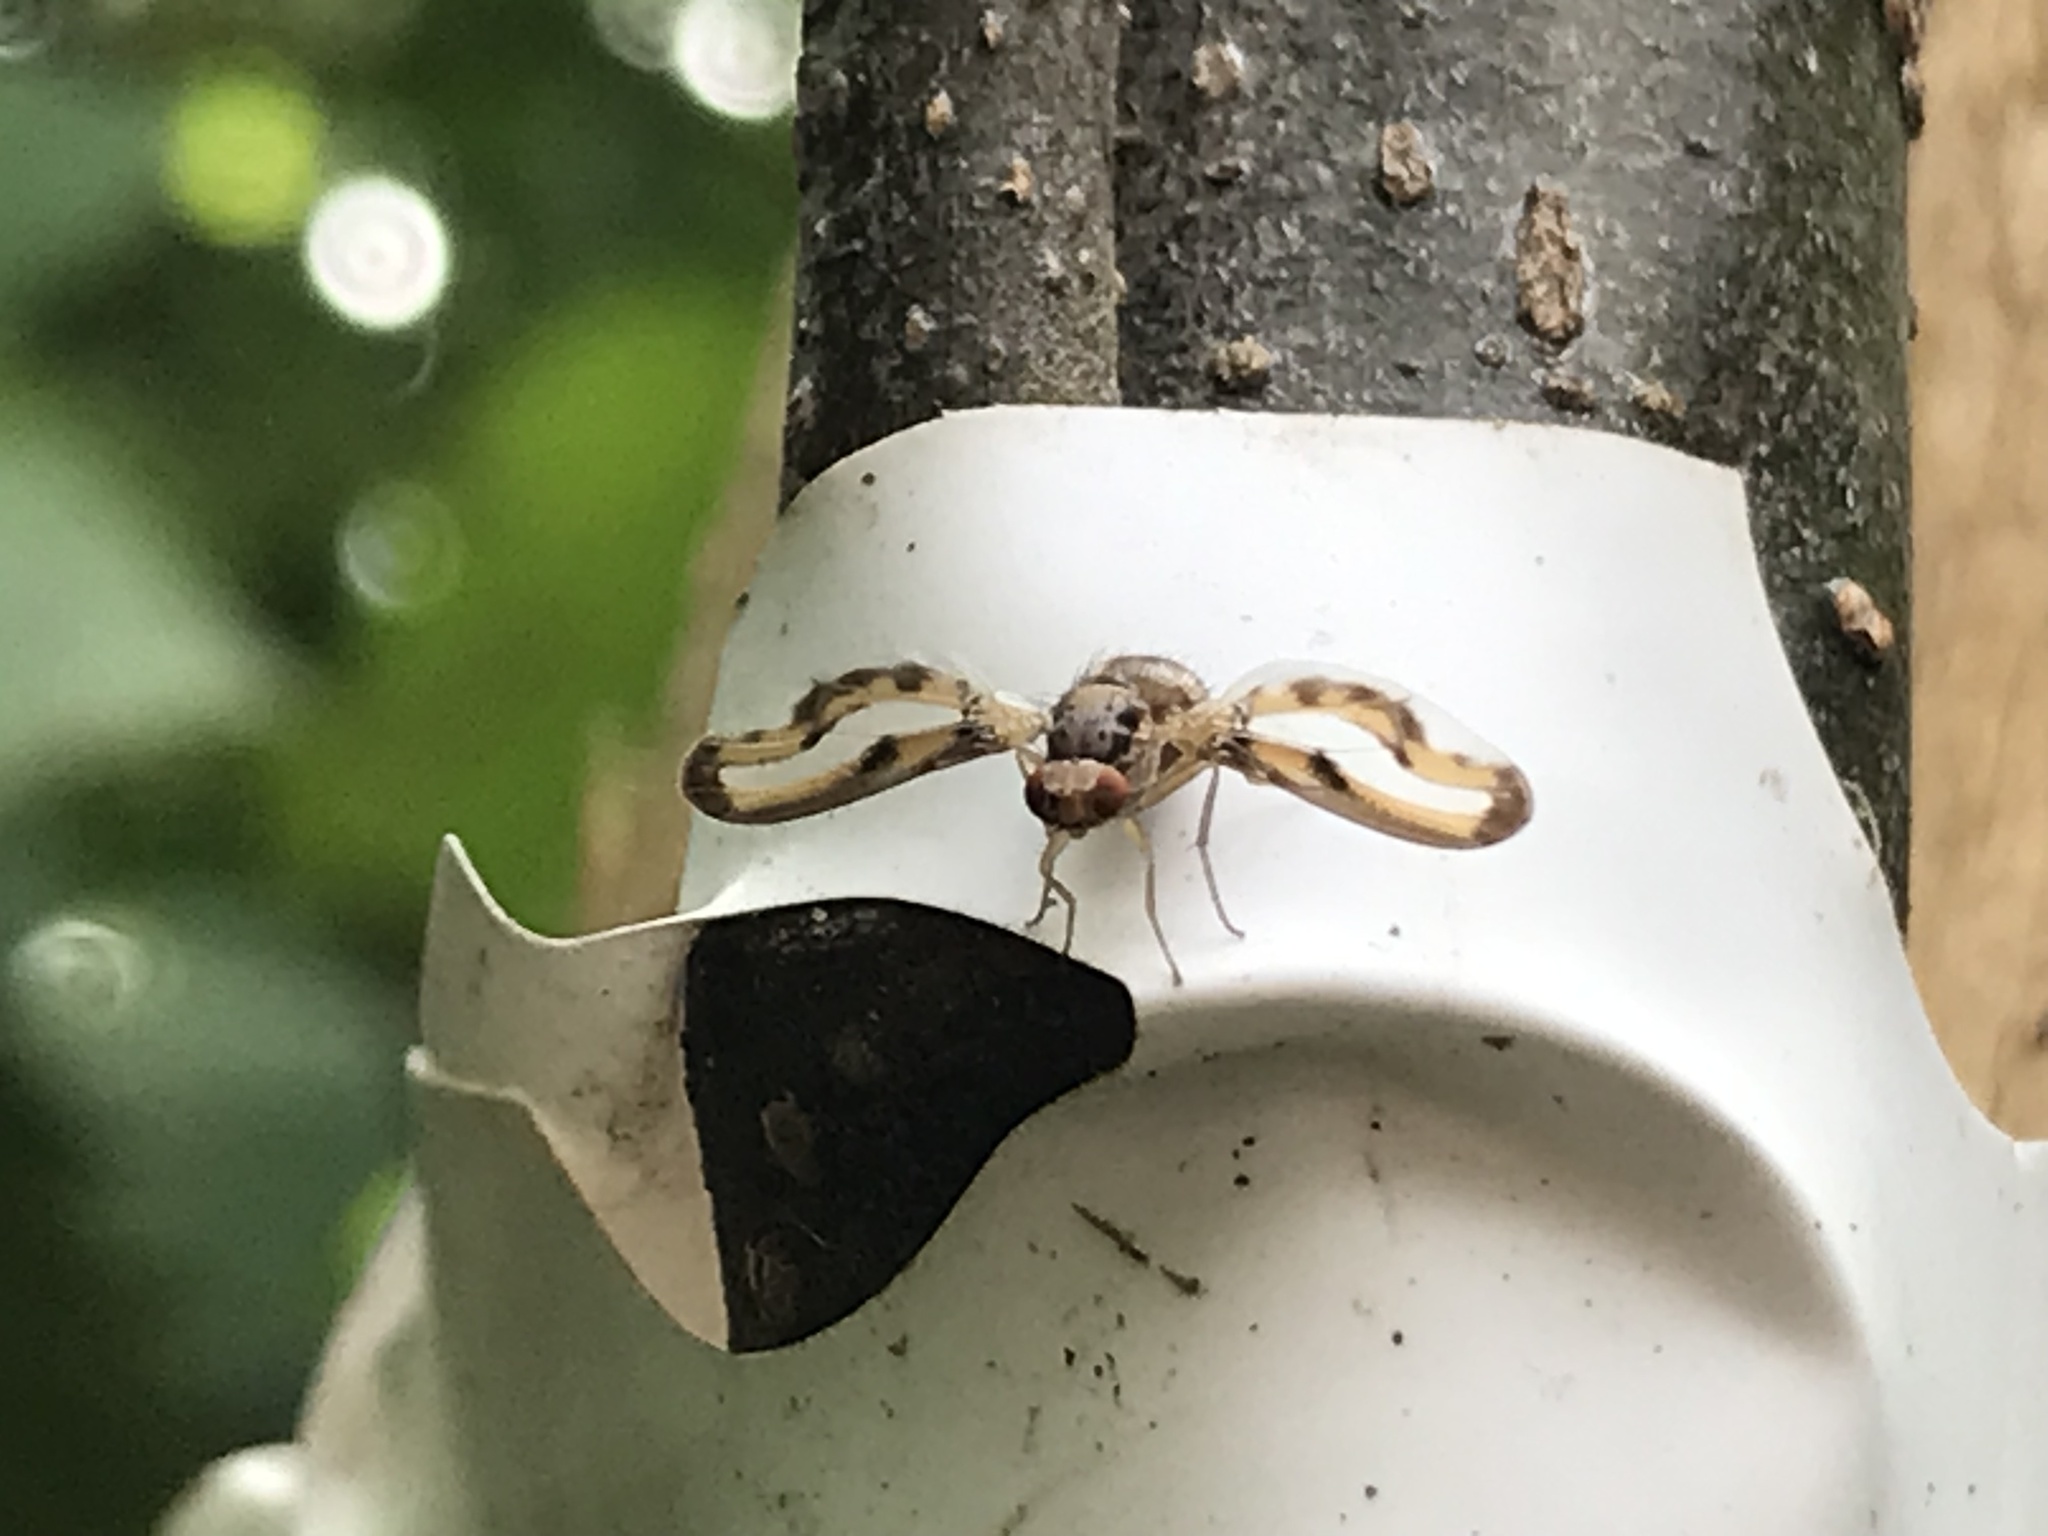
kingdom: Animalia
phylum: Arthropoda
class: Insecta
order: Diptera
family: Pallopteridae
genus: Toxonevra
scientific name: Toxonevra muliebris
